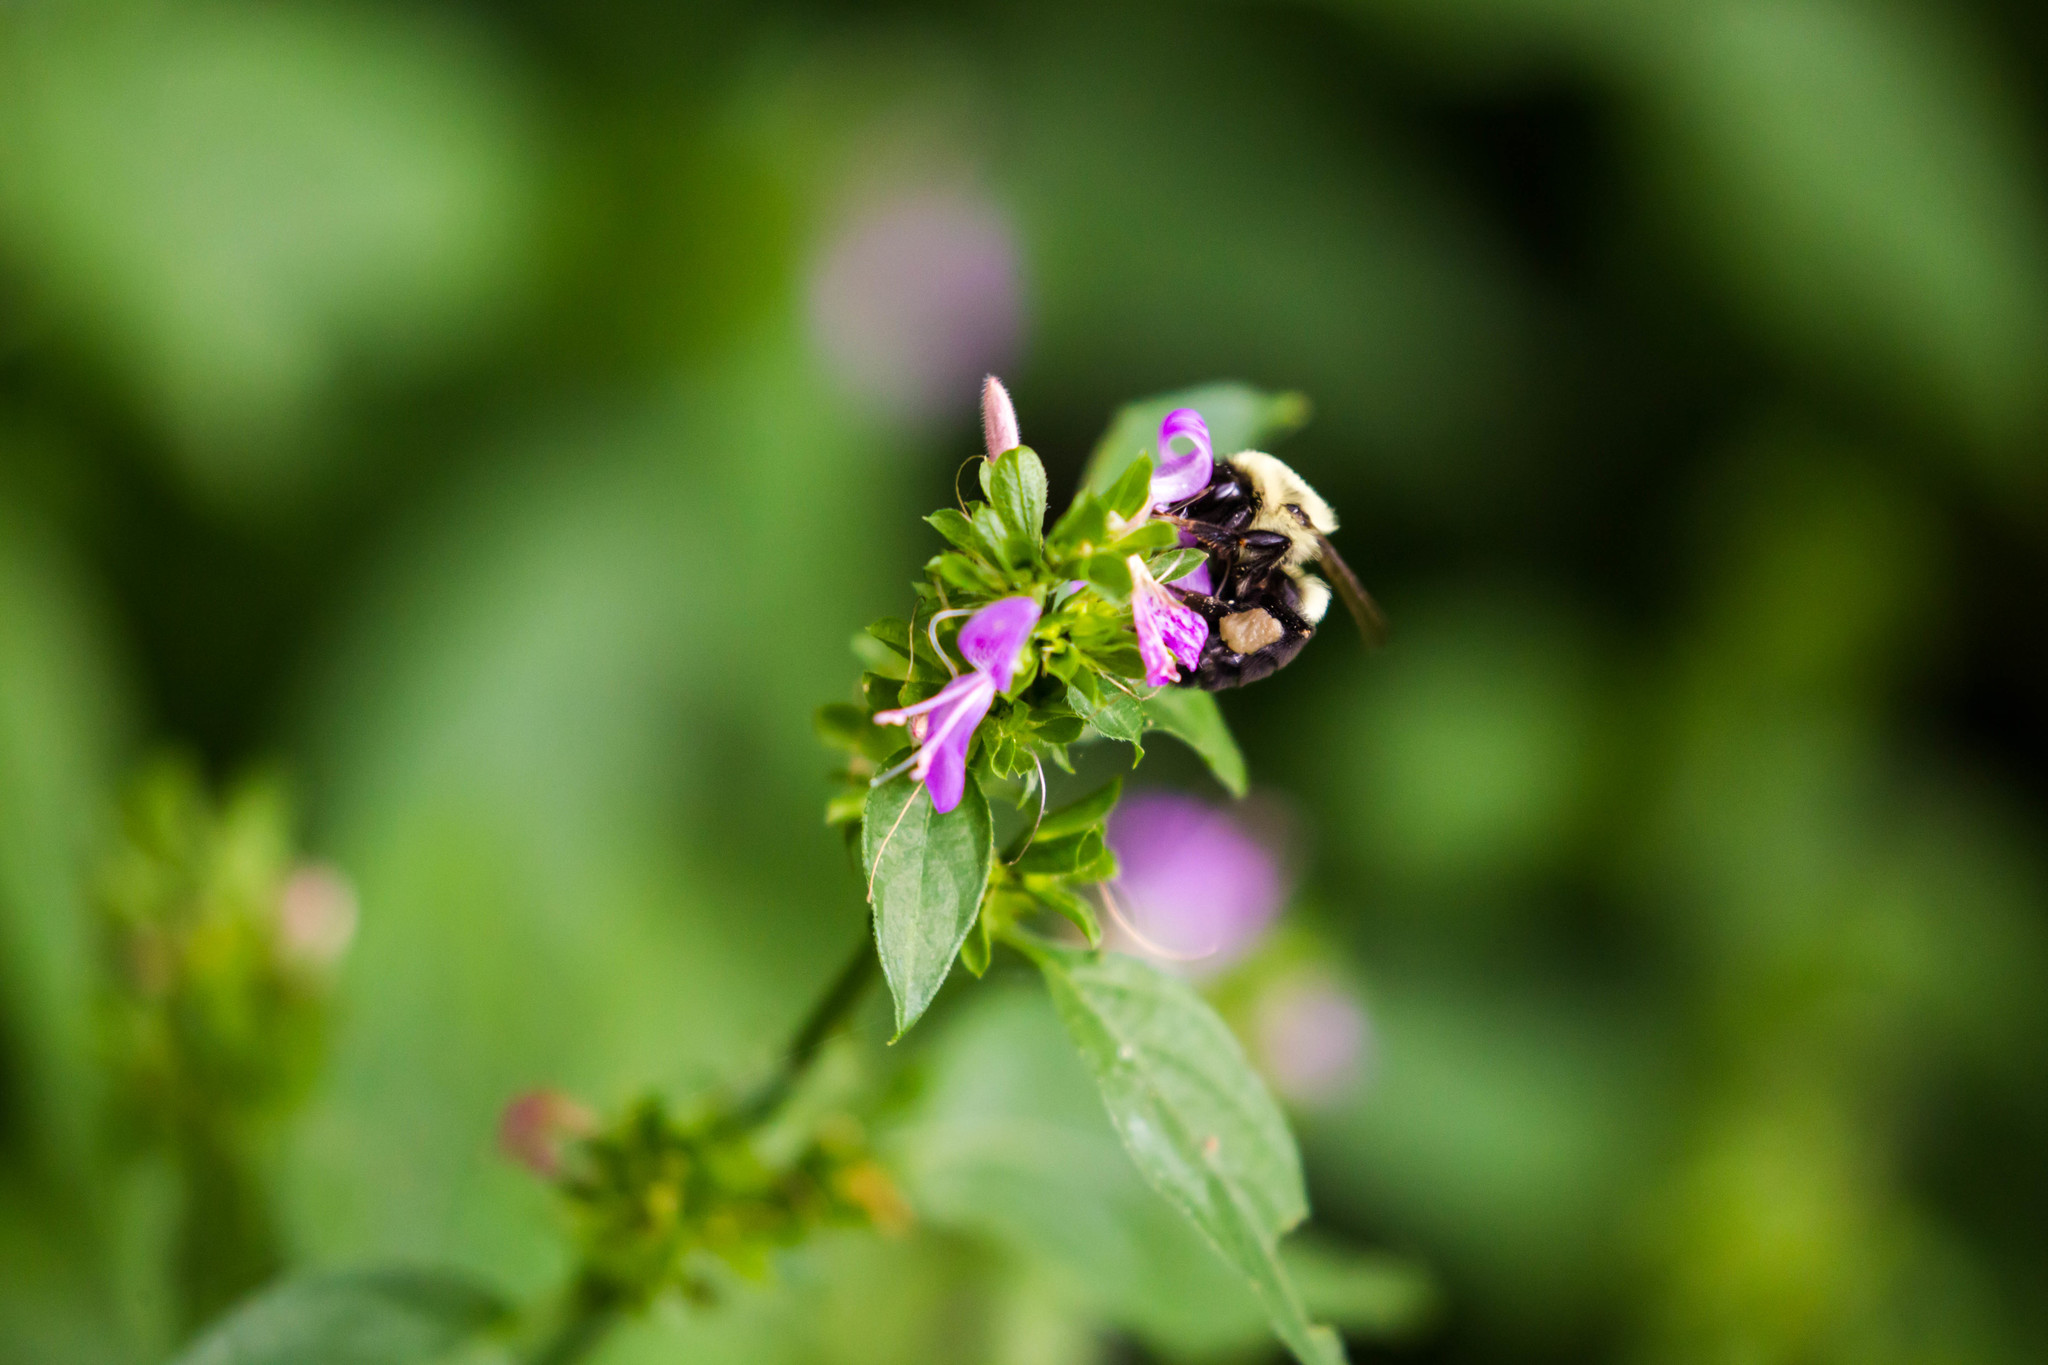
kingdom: Animalia
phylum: Arthropoda
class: Insecta
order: Hymenoptera
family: Apidae
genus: Bombus
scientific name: Bombus impatiens
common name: Common eastern bumble bee
